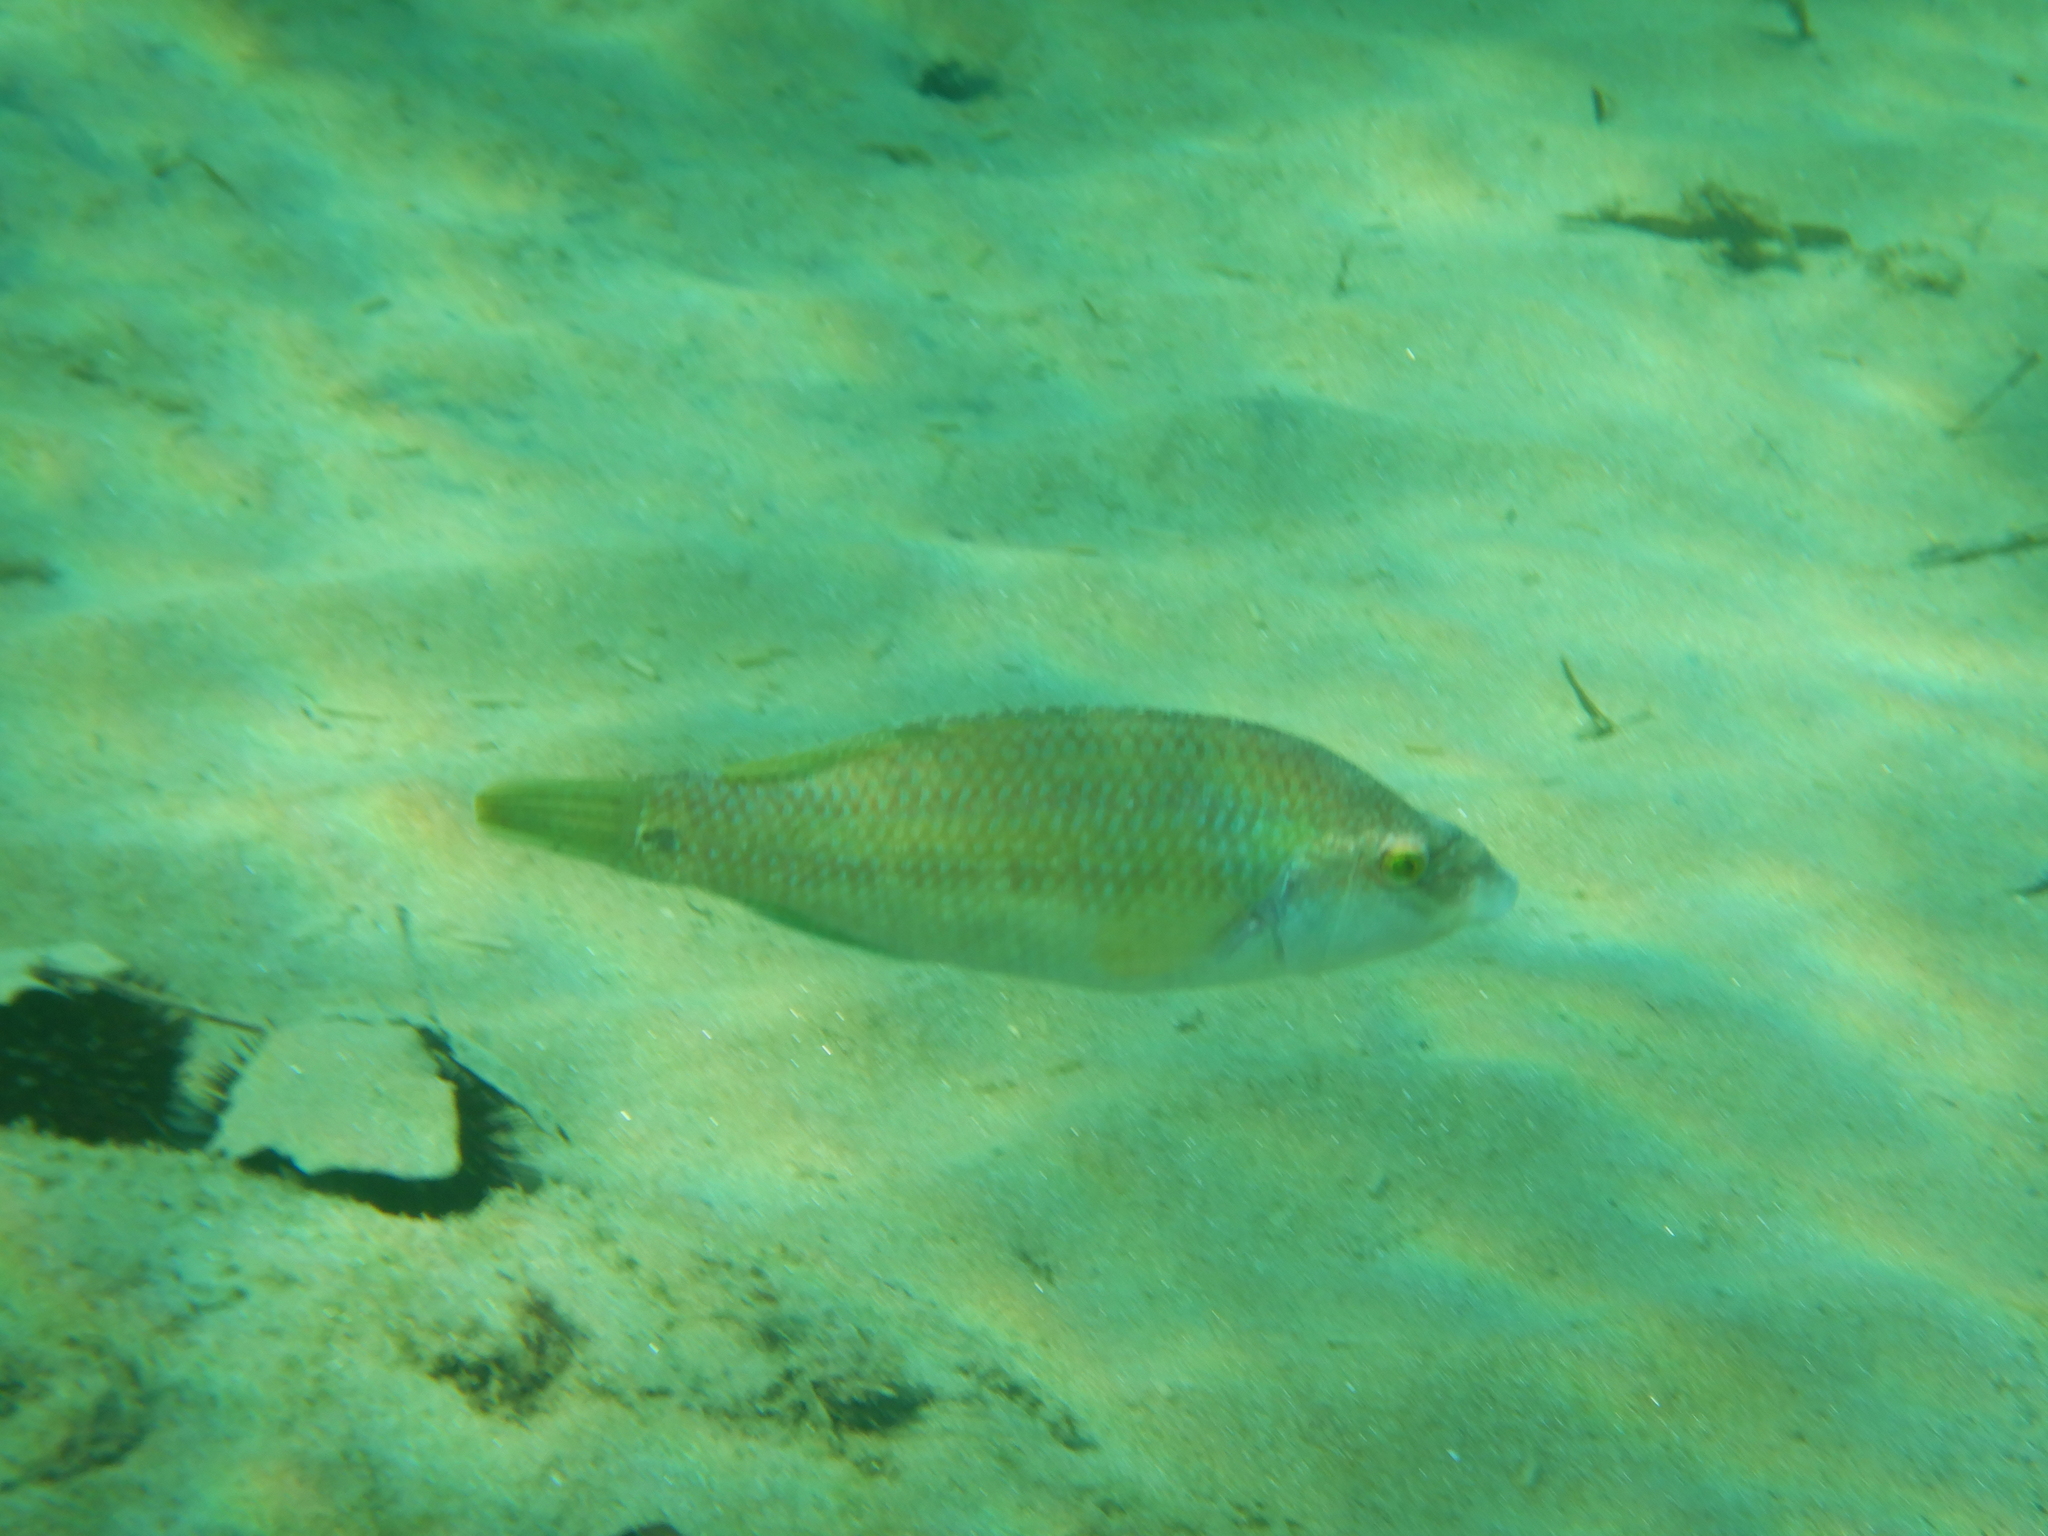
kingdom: Animalia
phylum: Chordata
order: Perciformes
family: Labridae
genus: Symphodus
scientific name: Symphodus tinca
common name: Peacock wrasse
